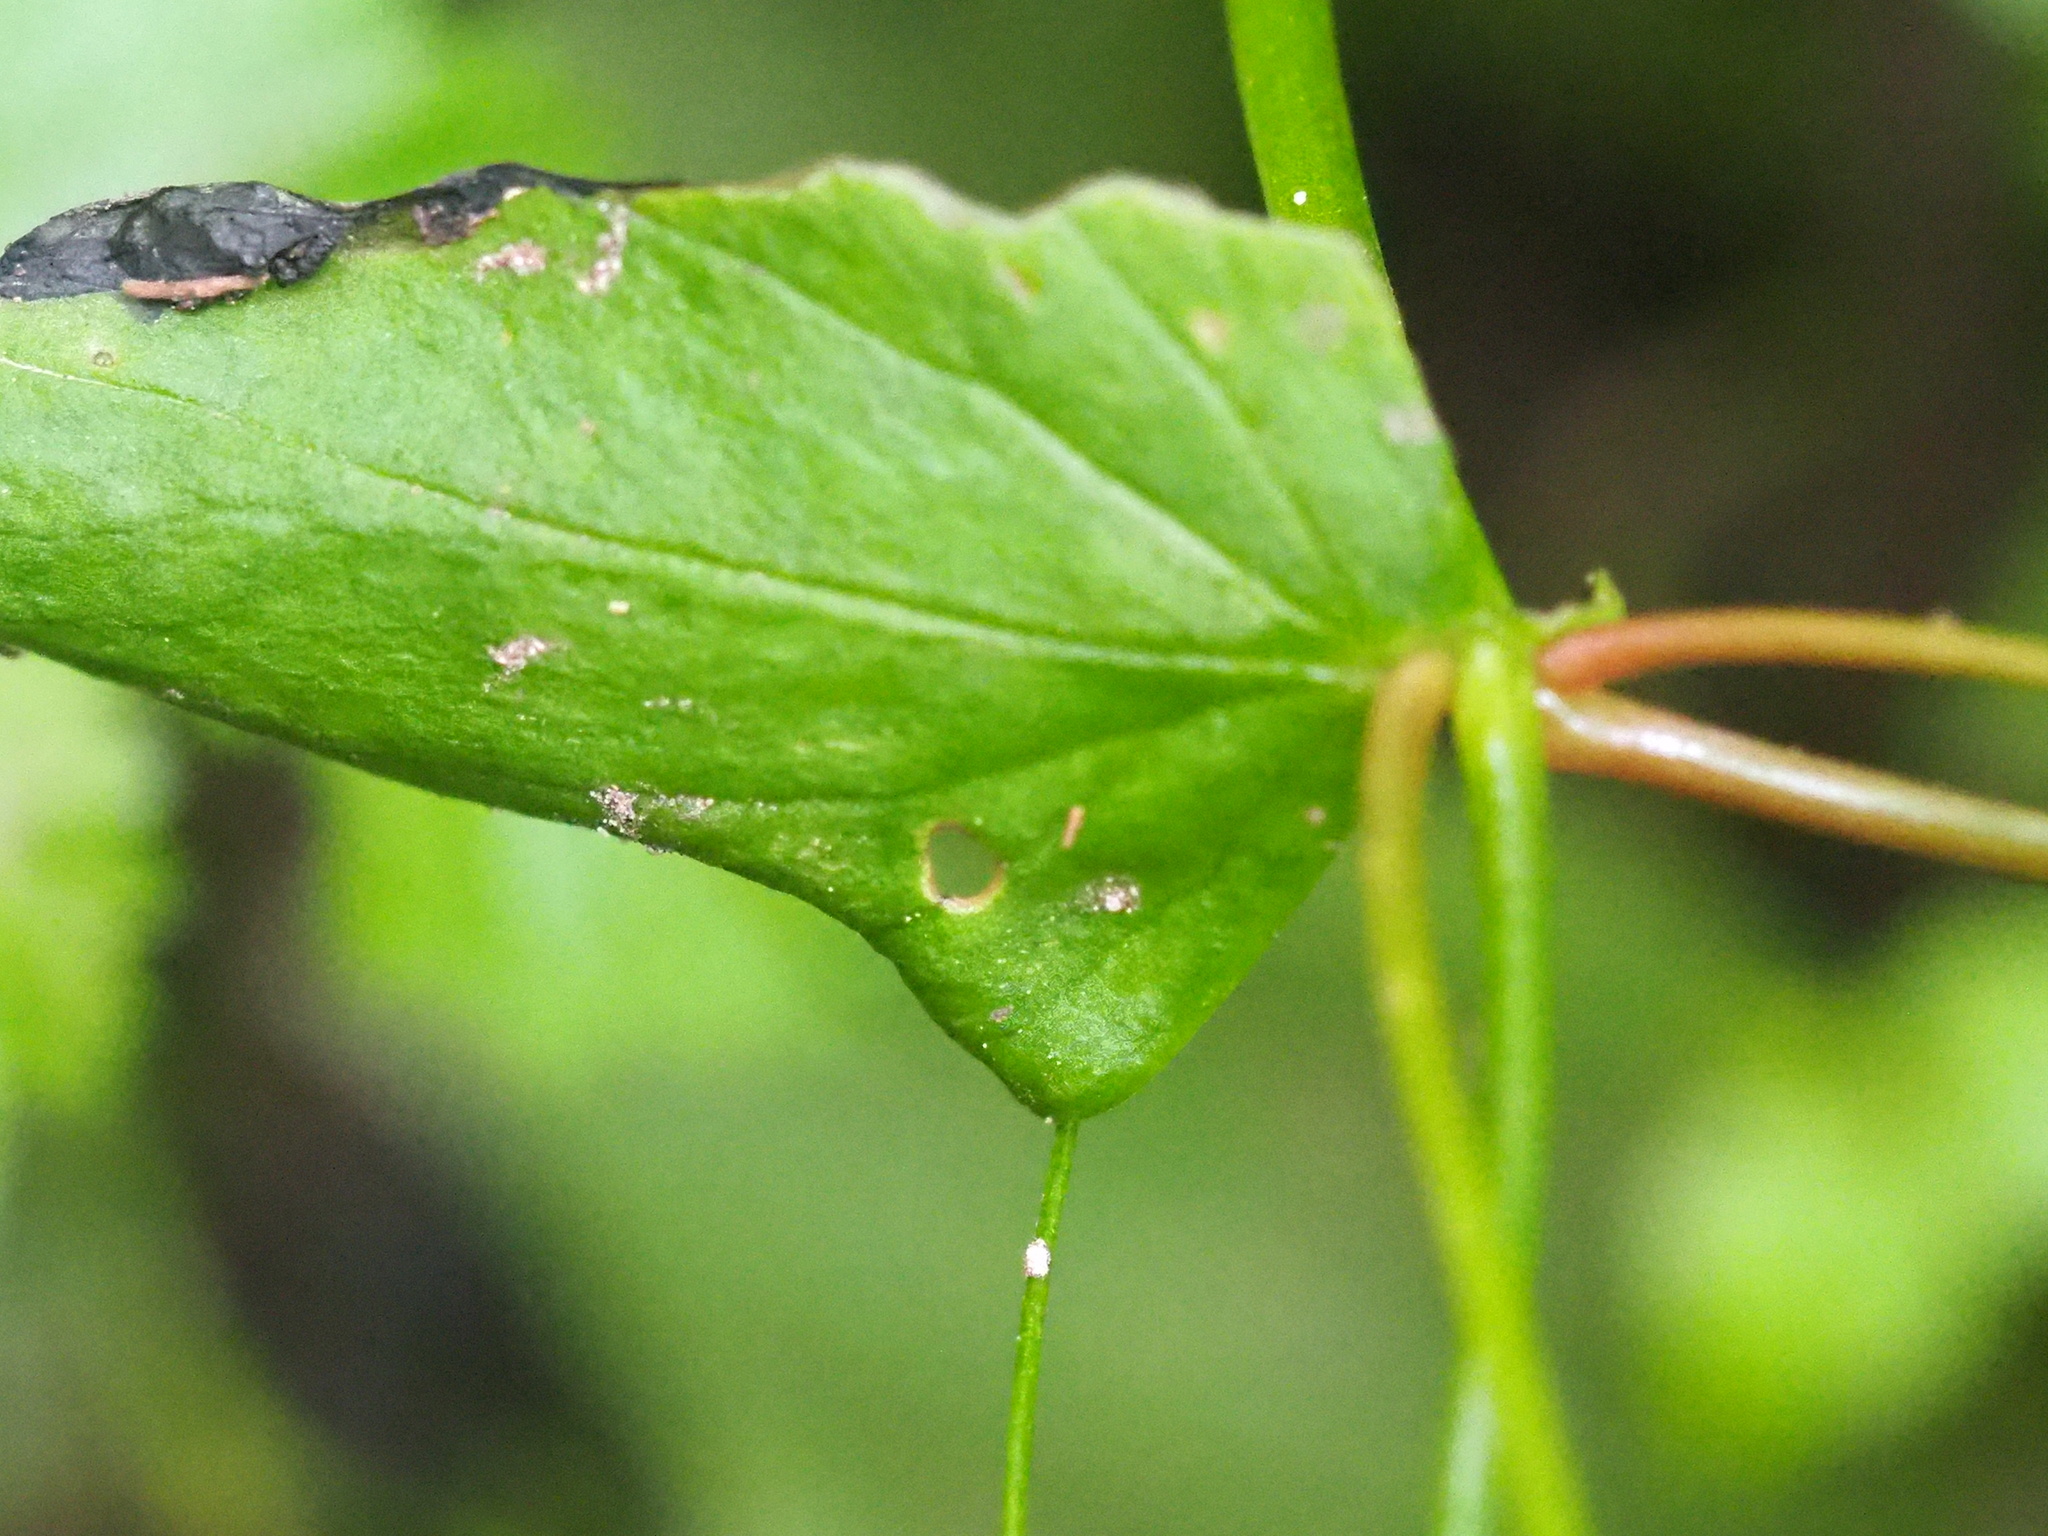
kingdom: Plantae
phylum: Tracheophyta
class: Magnoliopsida
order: Caryophyllales
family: Montiaceae
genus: Claytonia
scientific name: Claytonia sibirica
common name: Pink purslane
